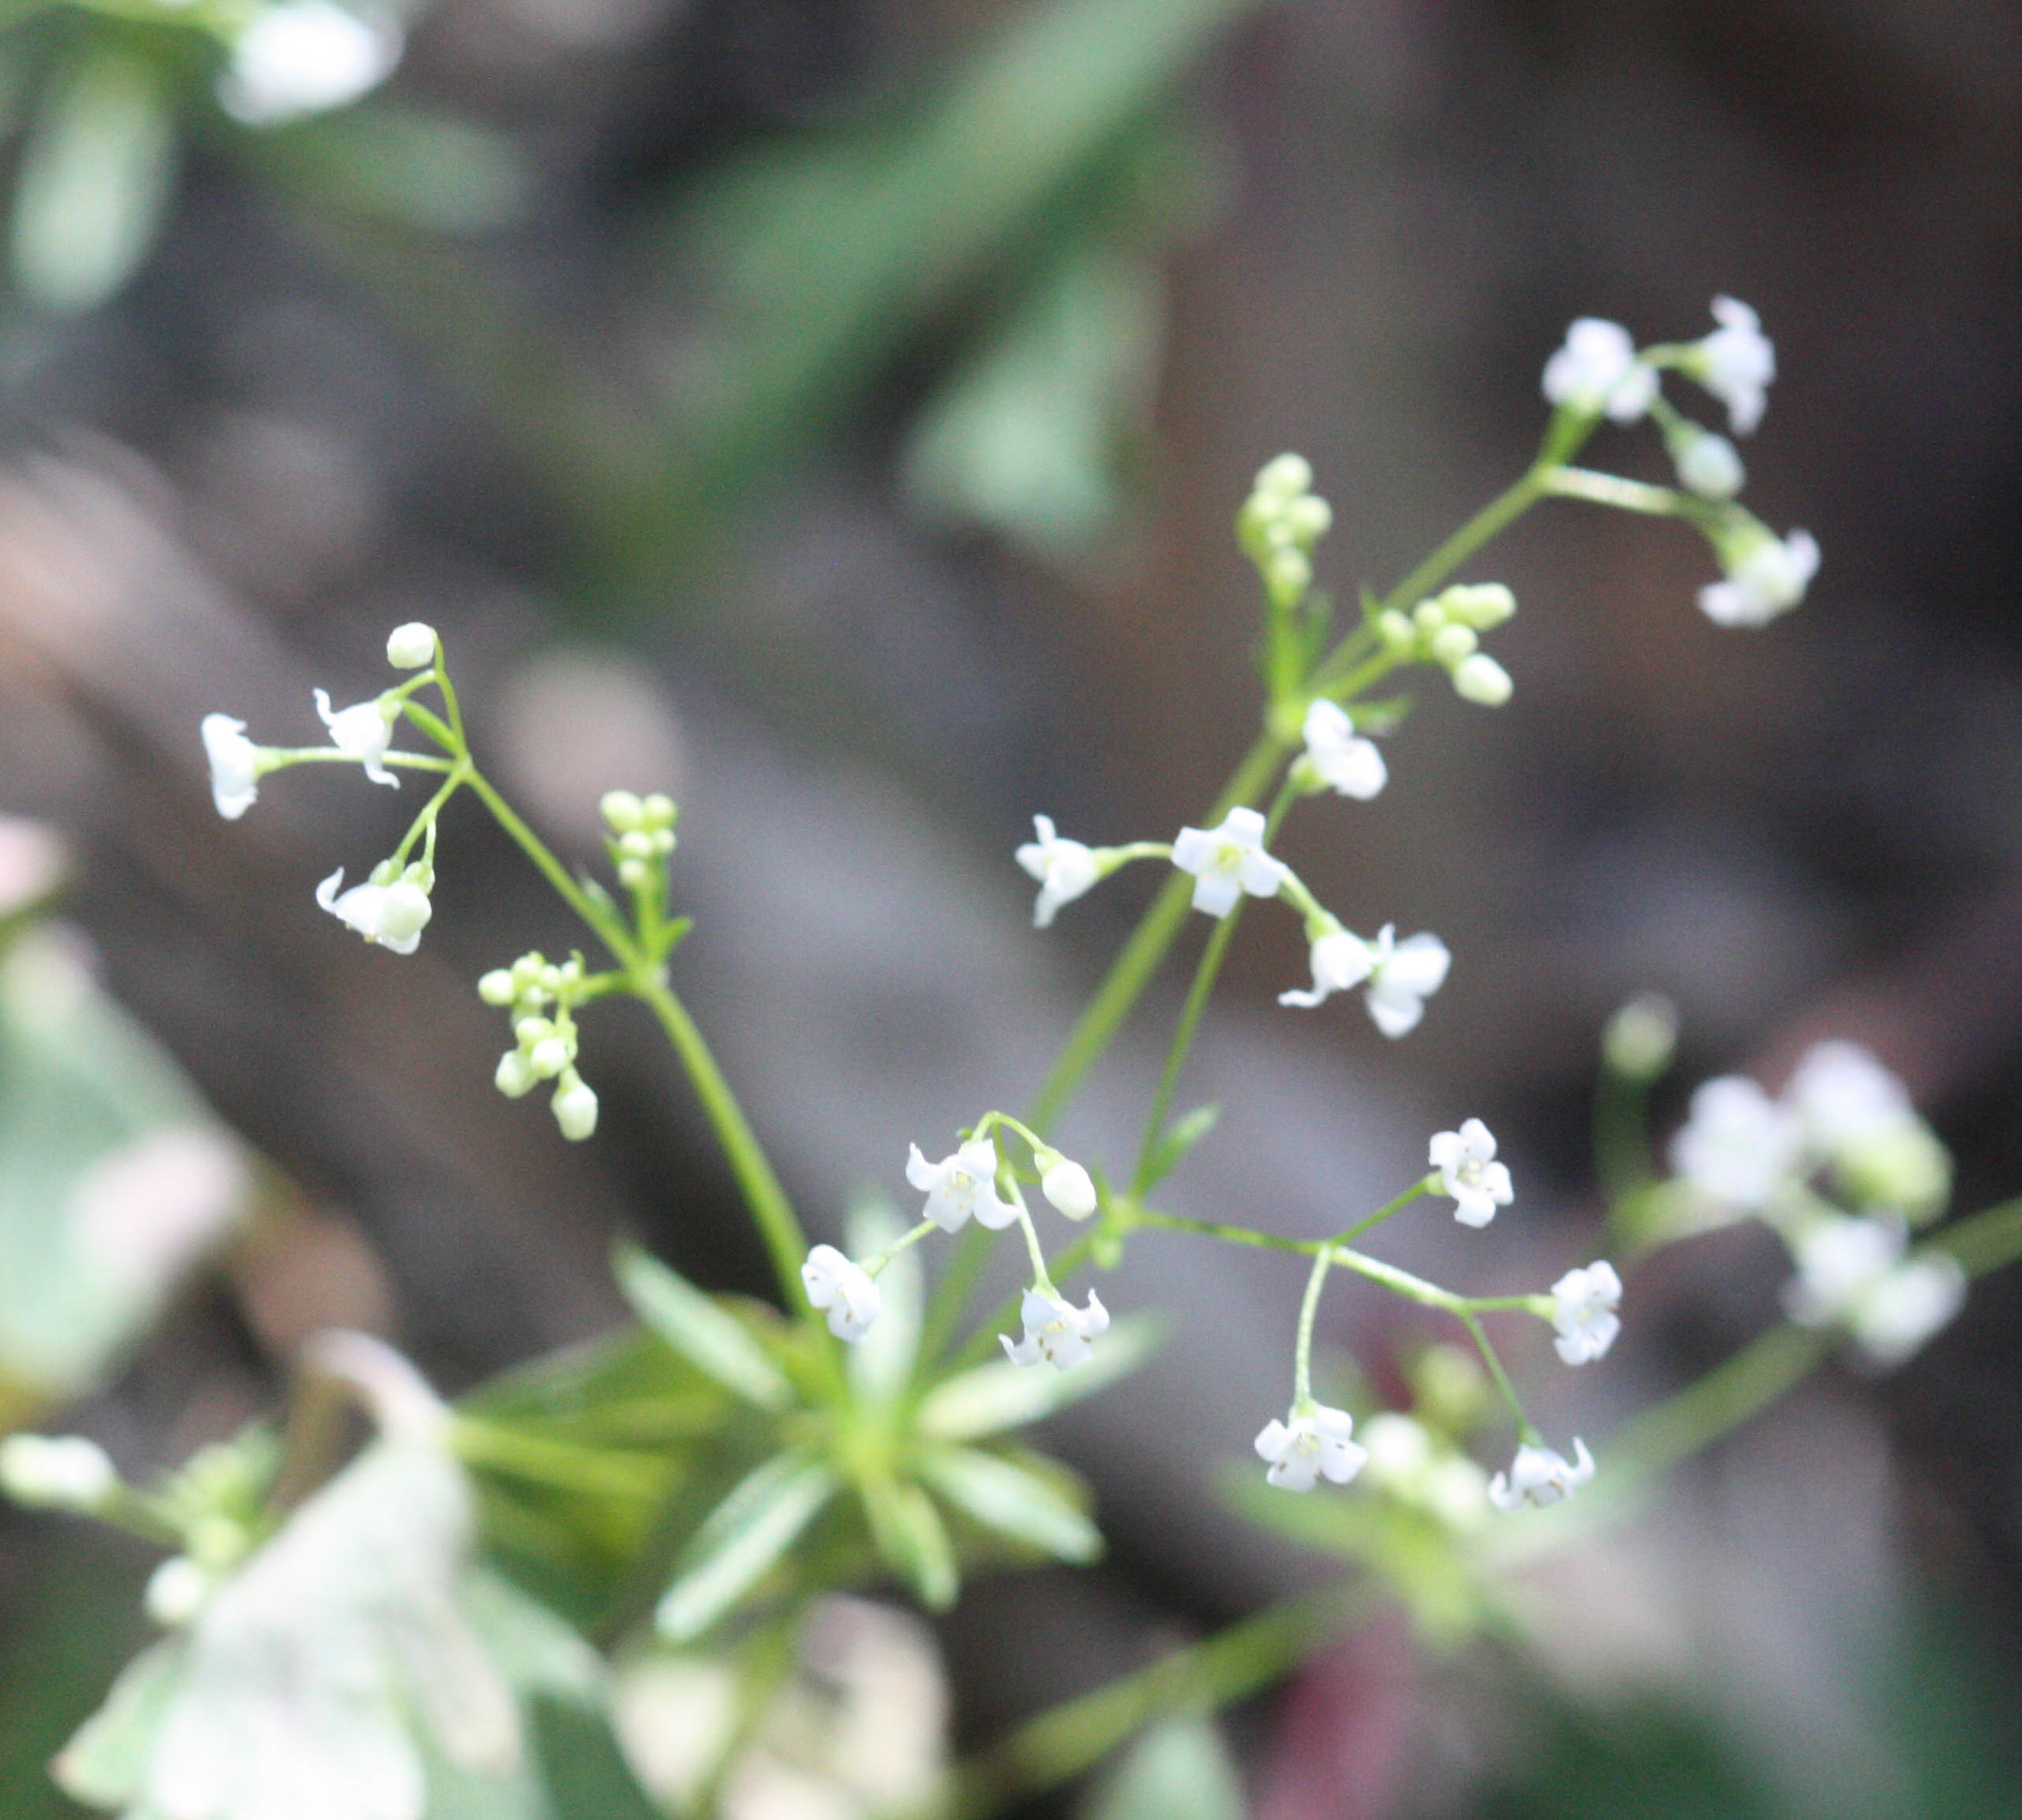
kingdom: Plantae
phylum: Tracheophyta
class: Magnoliopsida
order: Gentianales
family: Rubiaceae
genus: Galium
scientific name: Galium mexicanum
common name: Mexican bedstraw
